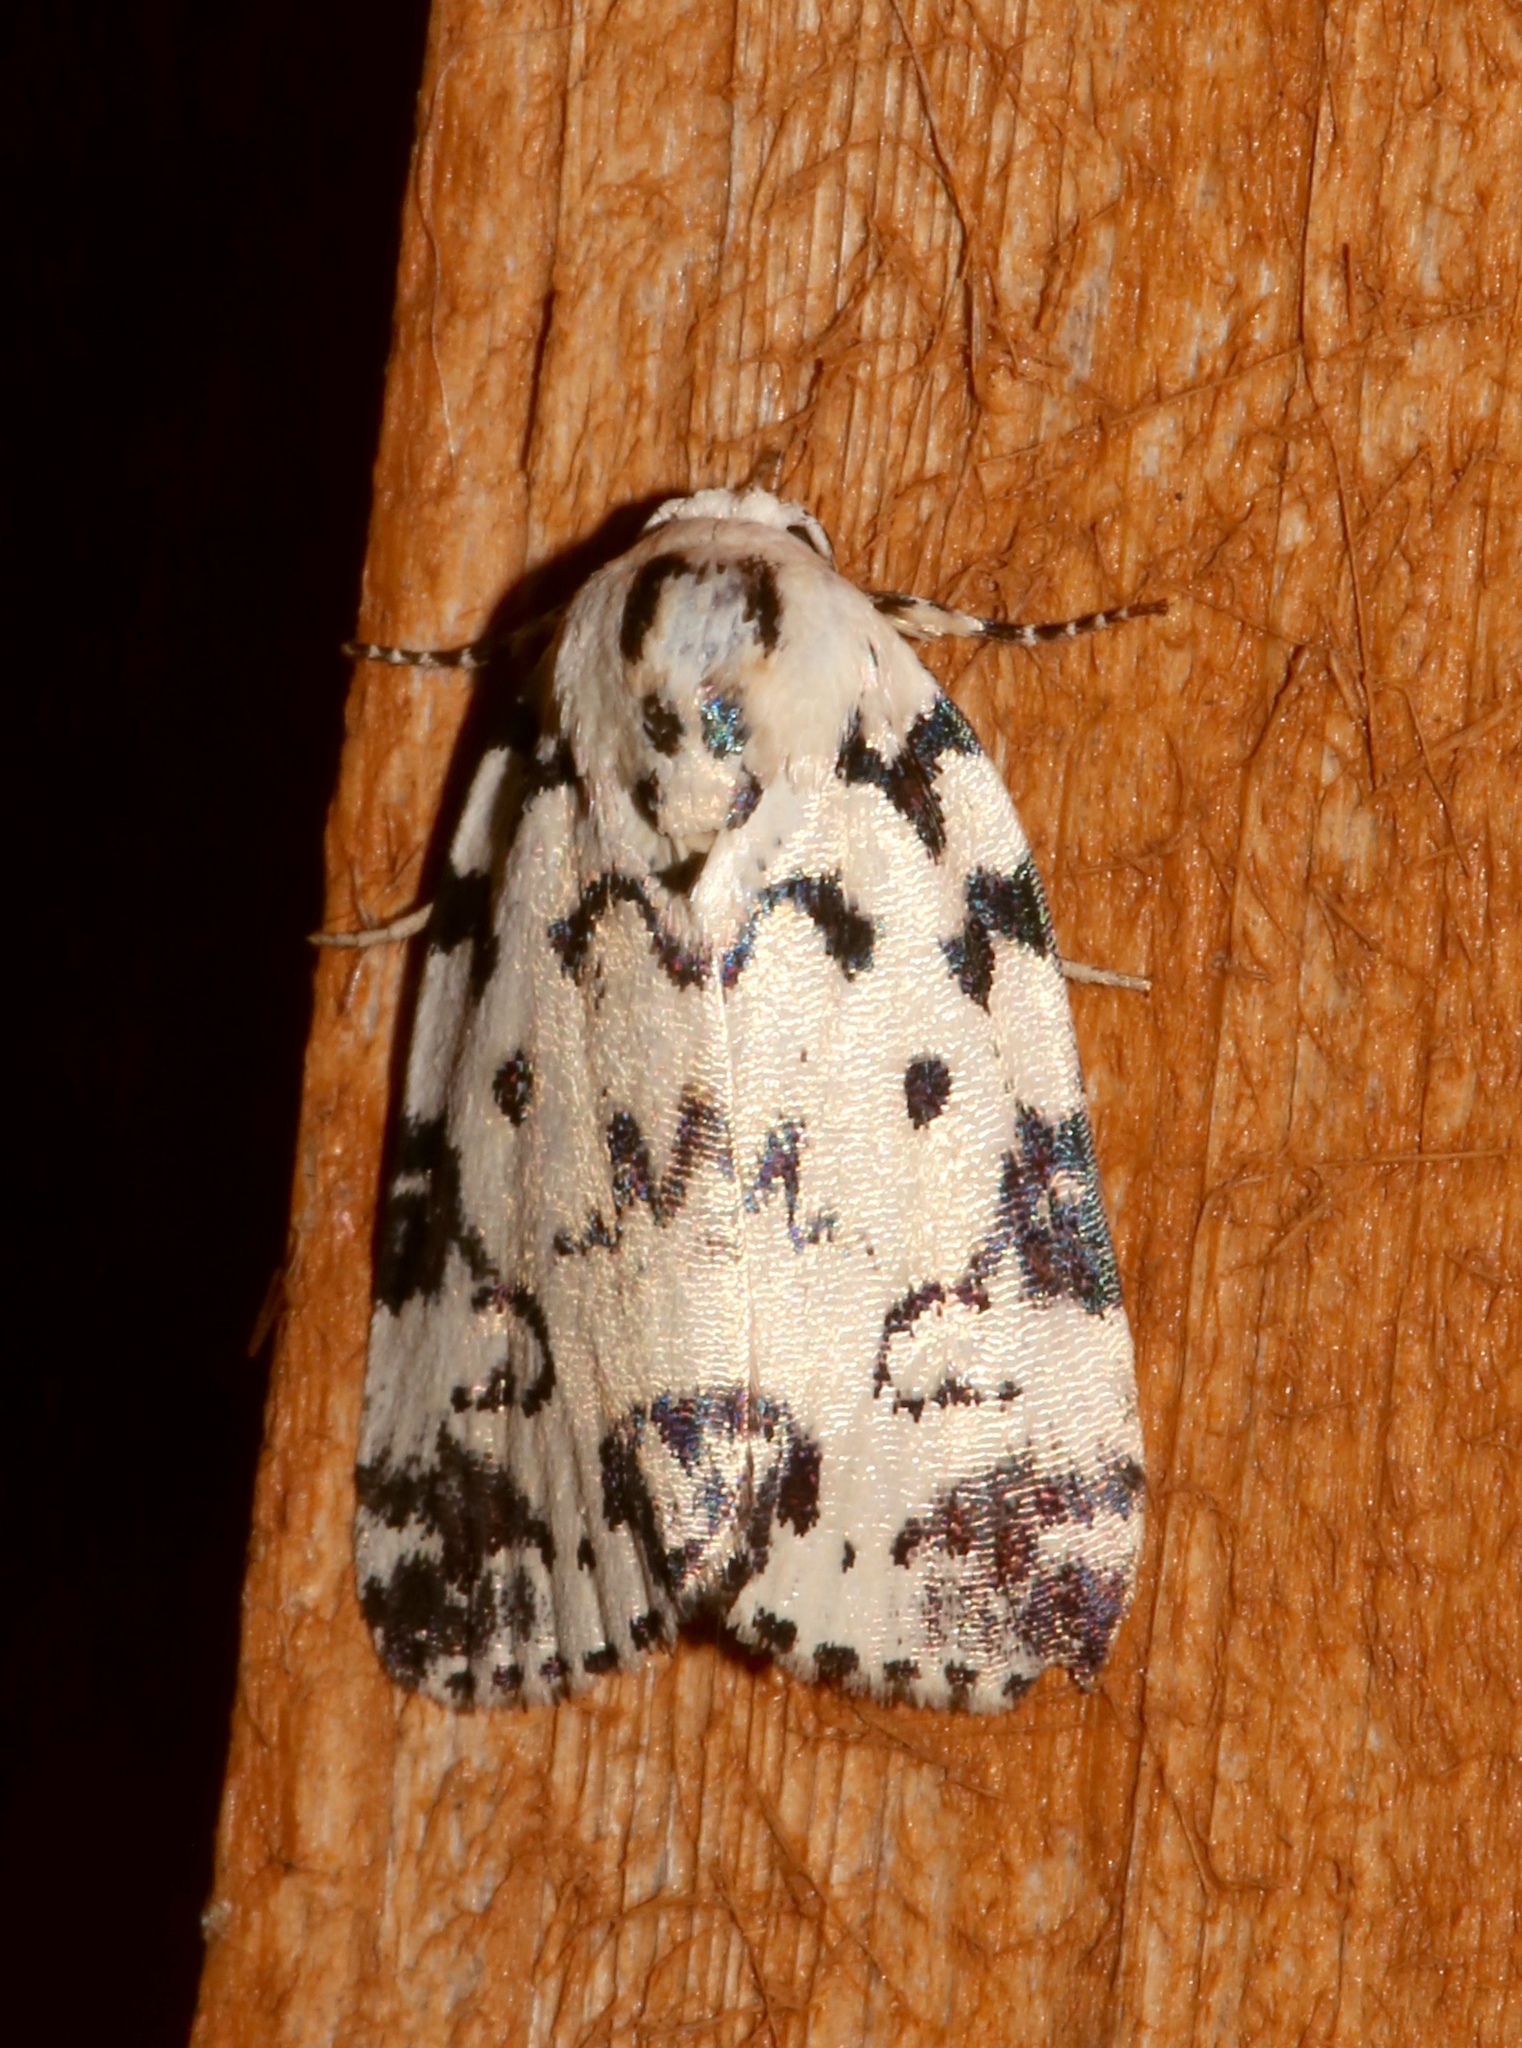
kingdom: Animalia
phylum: Arthropoda
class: Insecta
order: Lepidoptera
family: Noctuidae
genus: Polygrammate
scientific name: Polygrammate hebraeicum
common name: Hebrew moth
